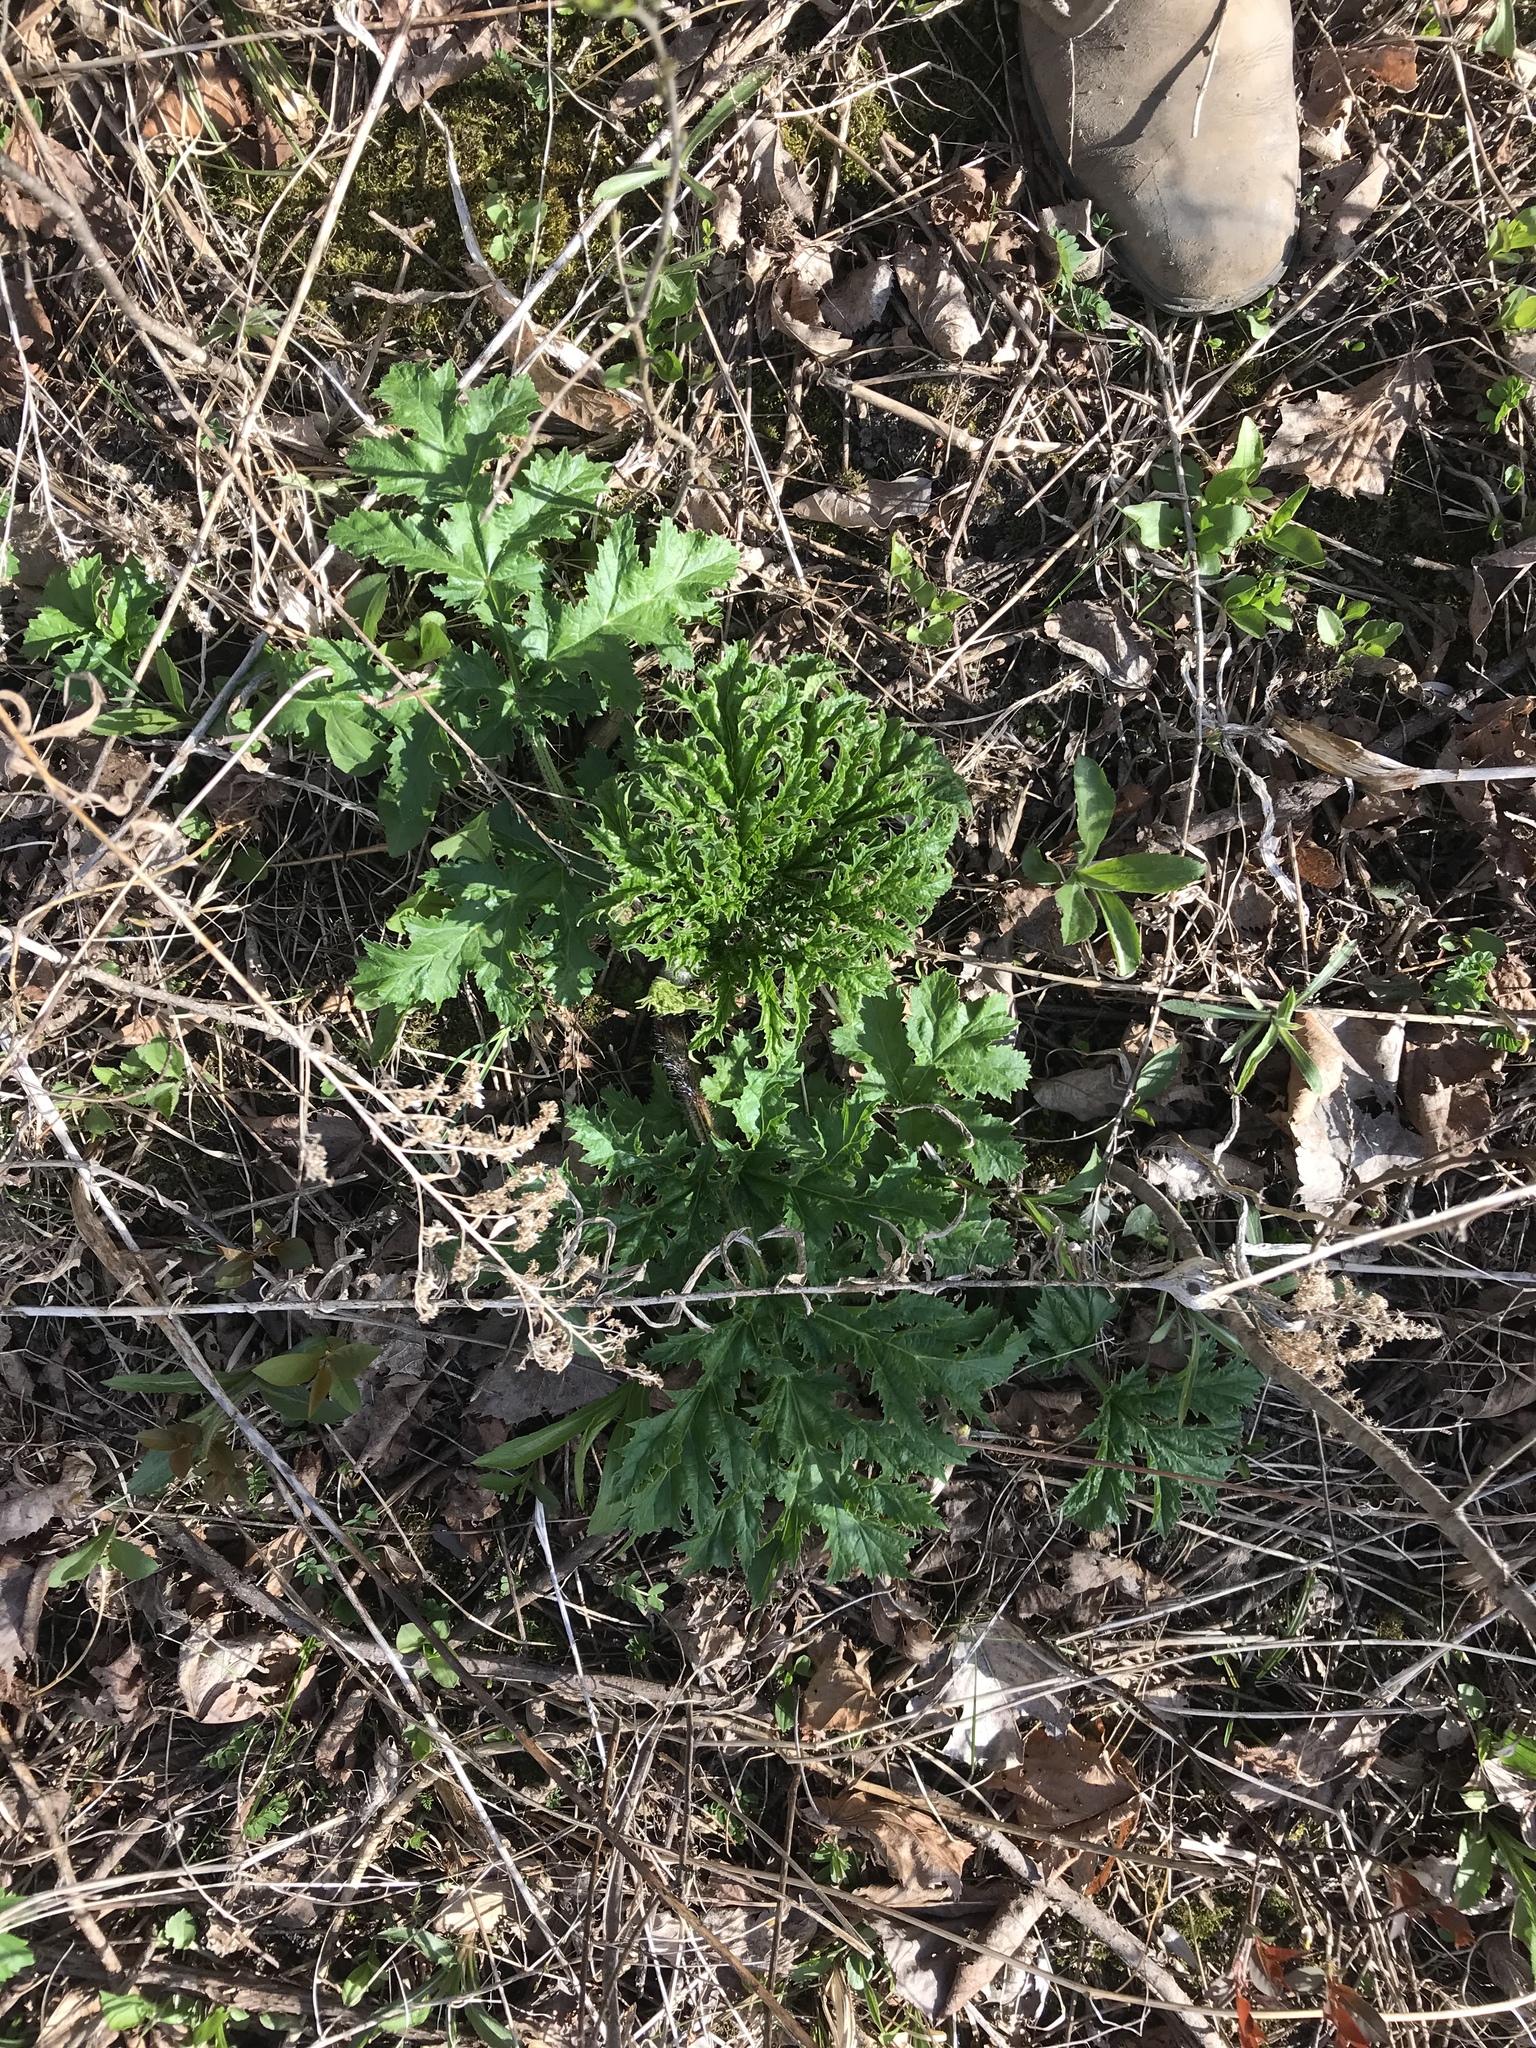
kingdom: Plantae
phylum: Tracheophyta
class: Magnoliopsida
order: Apiales
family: Apiaceae
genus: Heracleum
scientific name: Heracleum mantegazzianum
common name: Giant hogweed
